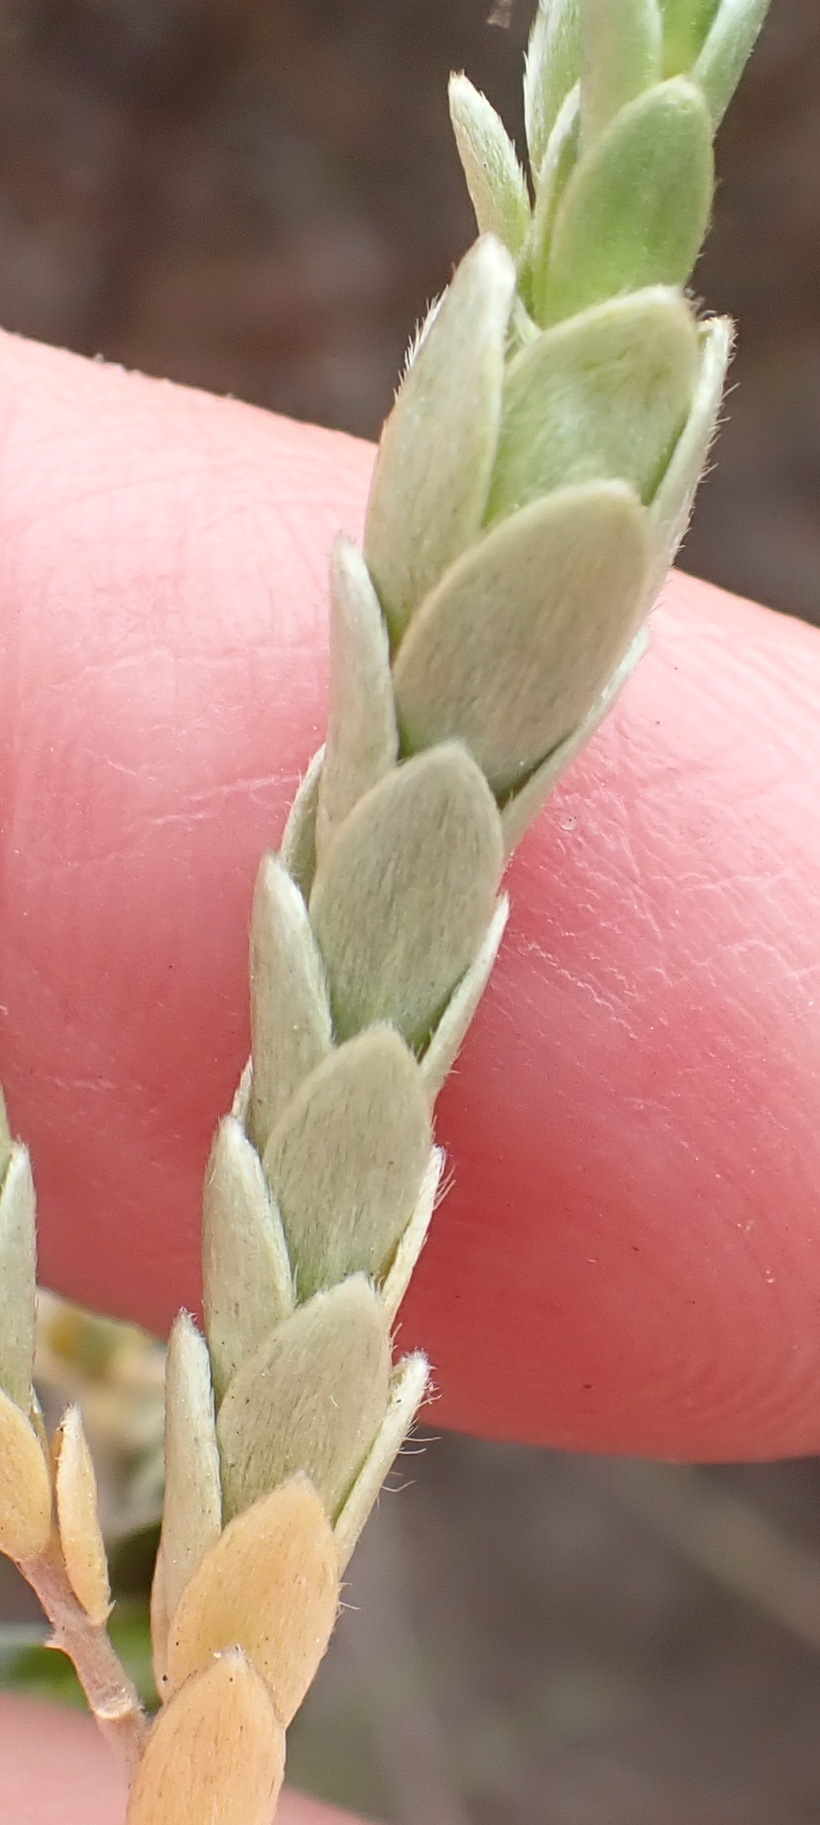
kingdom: Plantae
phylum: Tracheophyta
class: Magnoliopsida
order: Malvales
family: Thymelaeaceae
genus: Gnidia
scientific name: Gnidia chrysophylla
